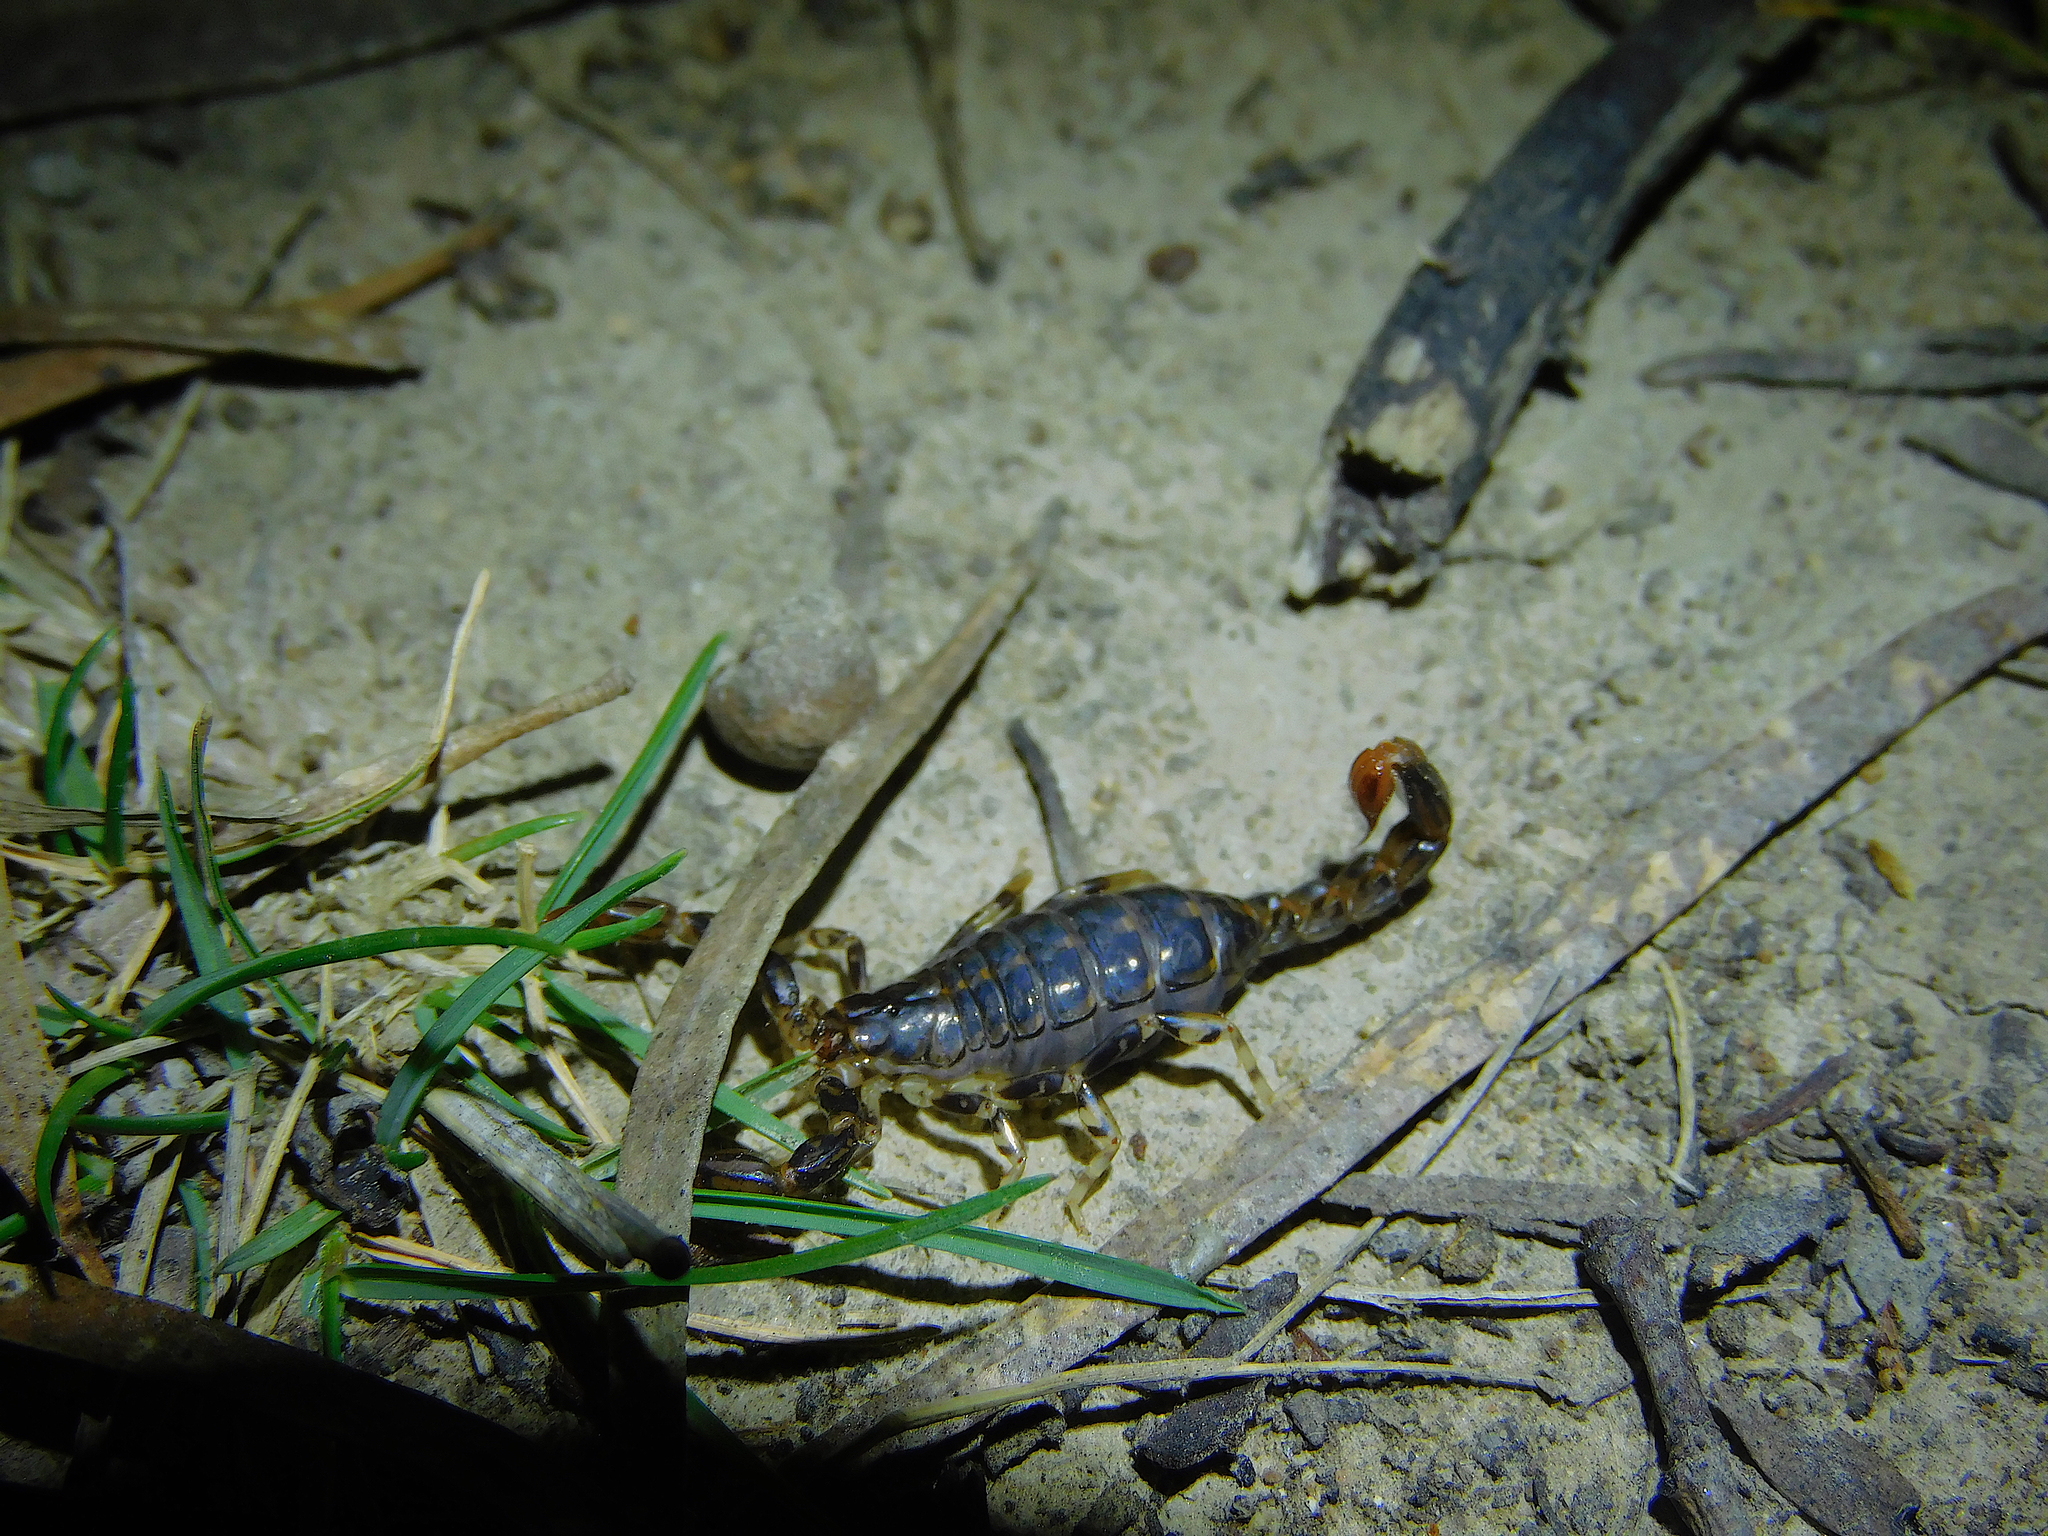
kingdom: Animalia
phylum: Arthropoda
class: Arachnida
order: Scorpiones
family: Bothriuridae
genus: Cercophonius
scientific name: Cercophonius squama
